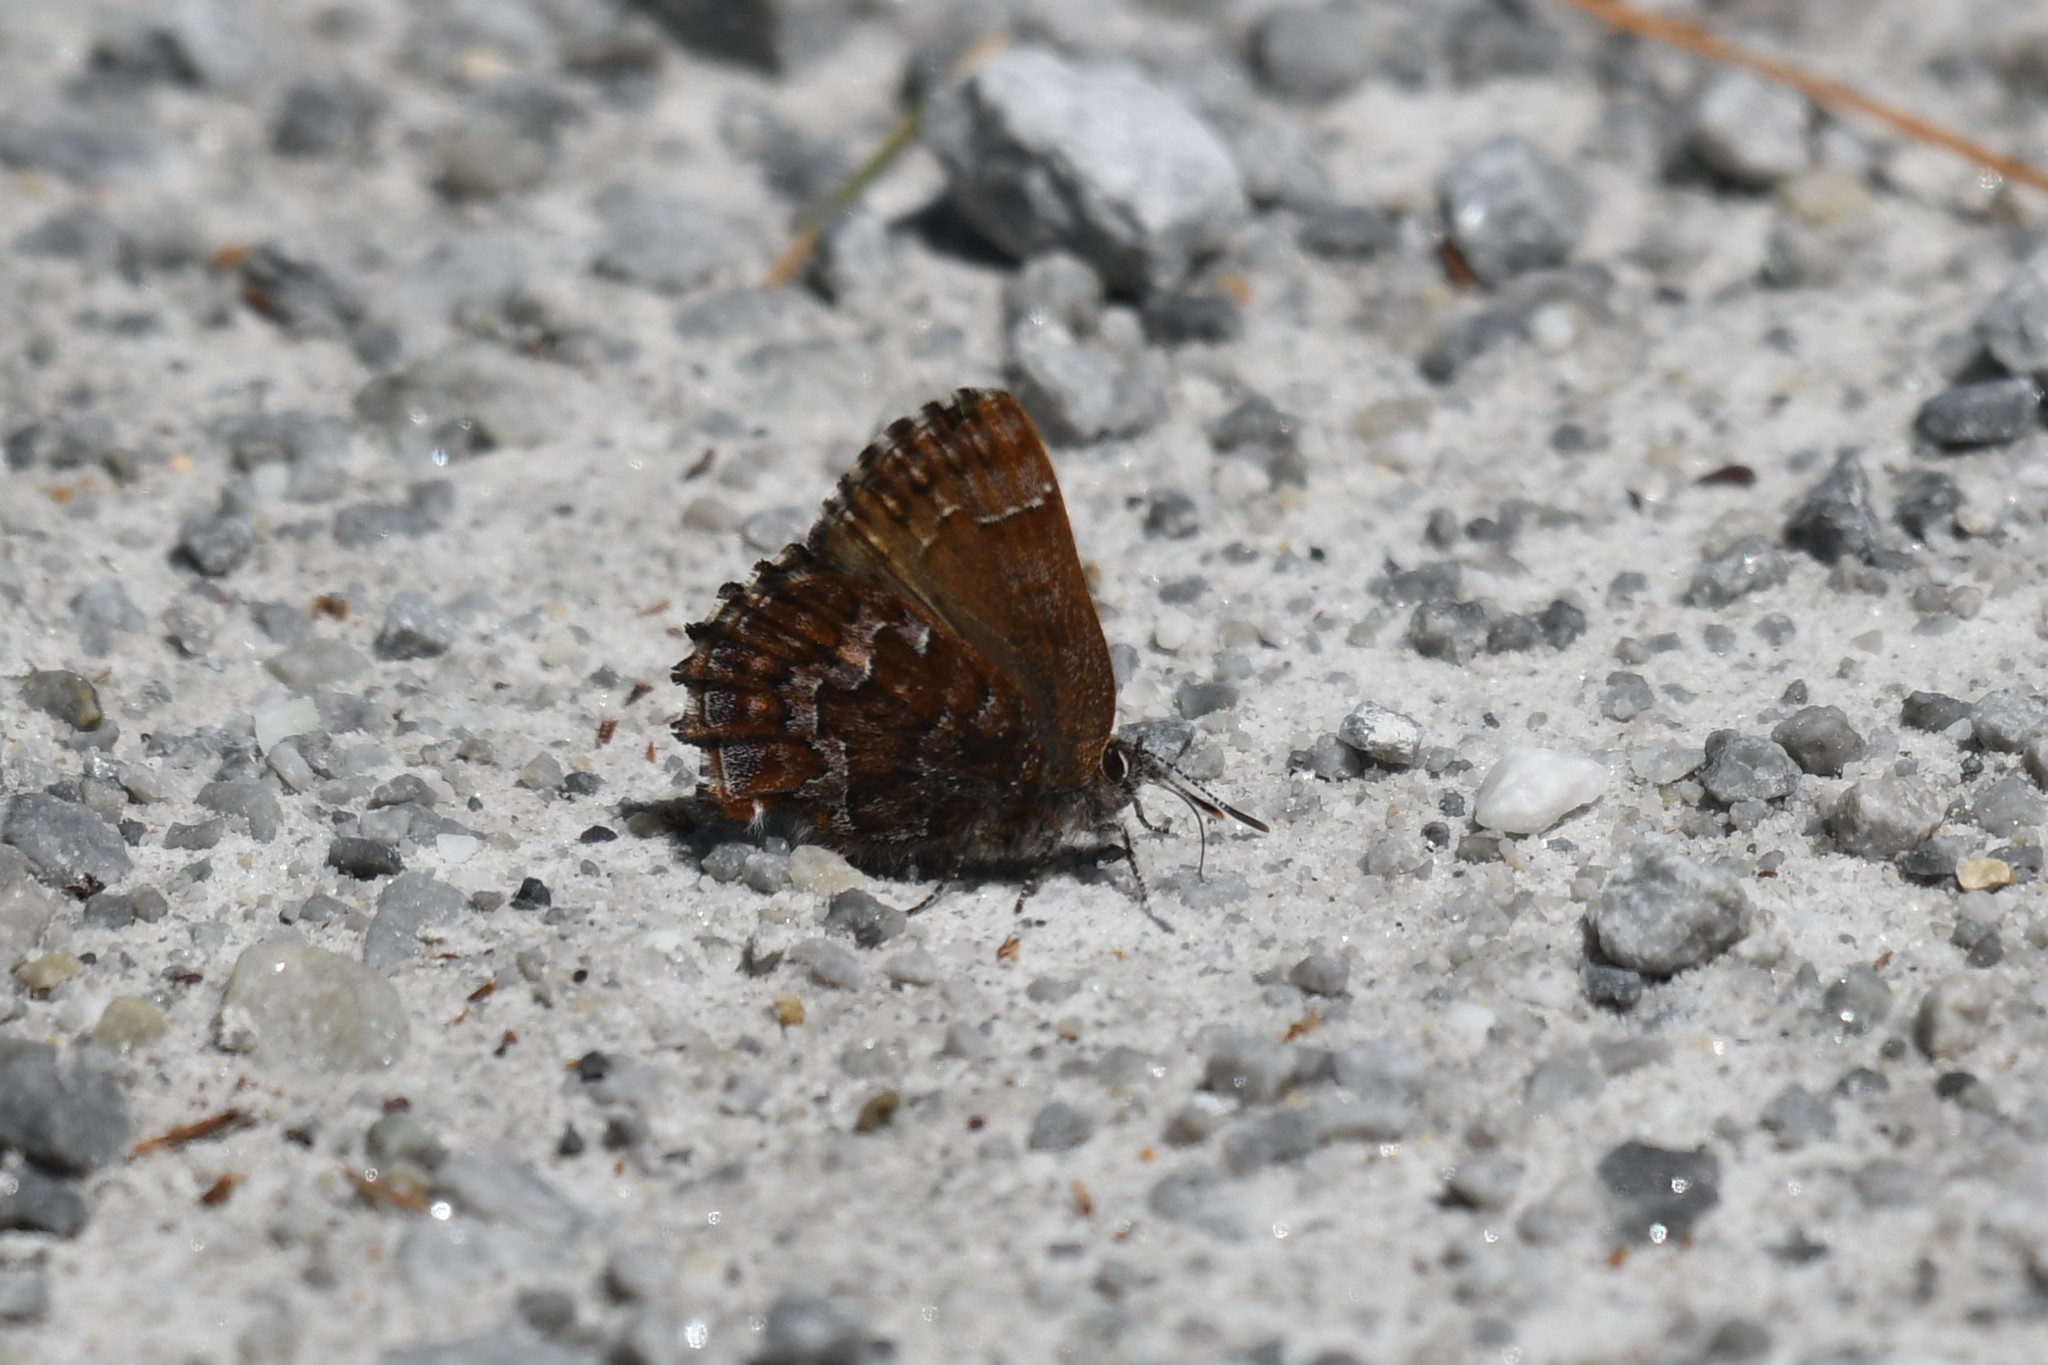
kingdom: Animalia
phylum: Arthropoda
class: Insecta
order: Lepidoptera
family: Lycaenidae
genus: Incisalia
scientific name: Incisalia niphon
